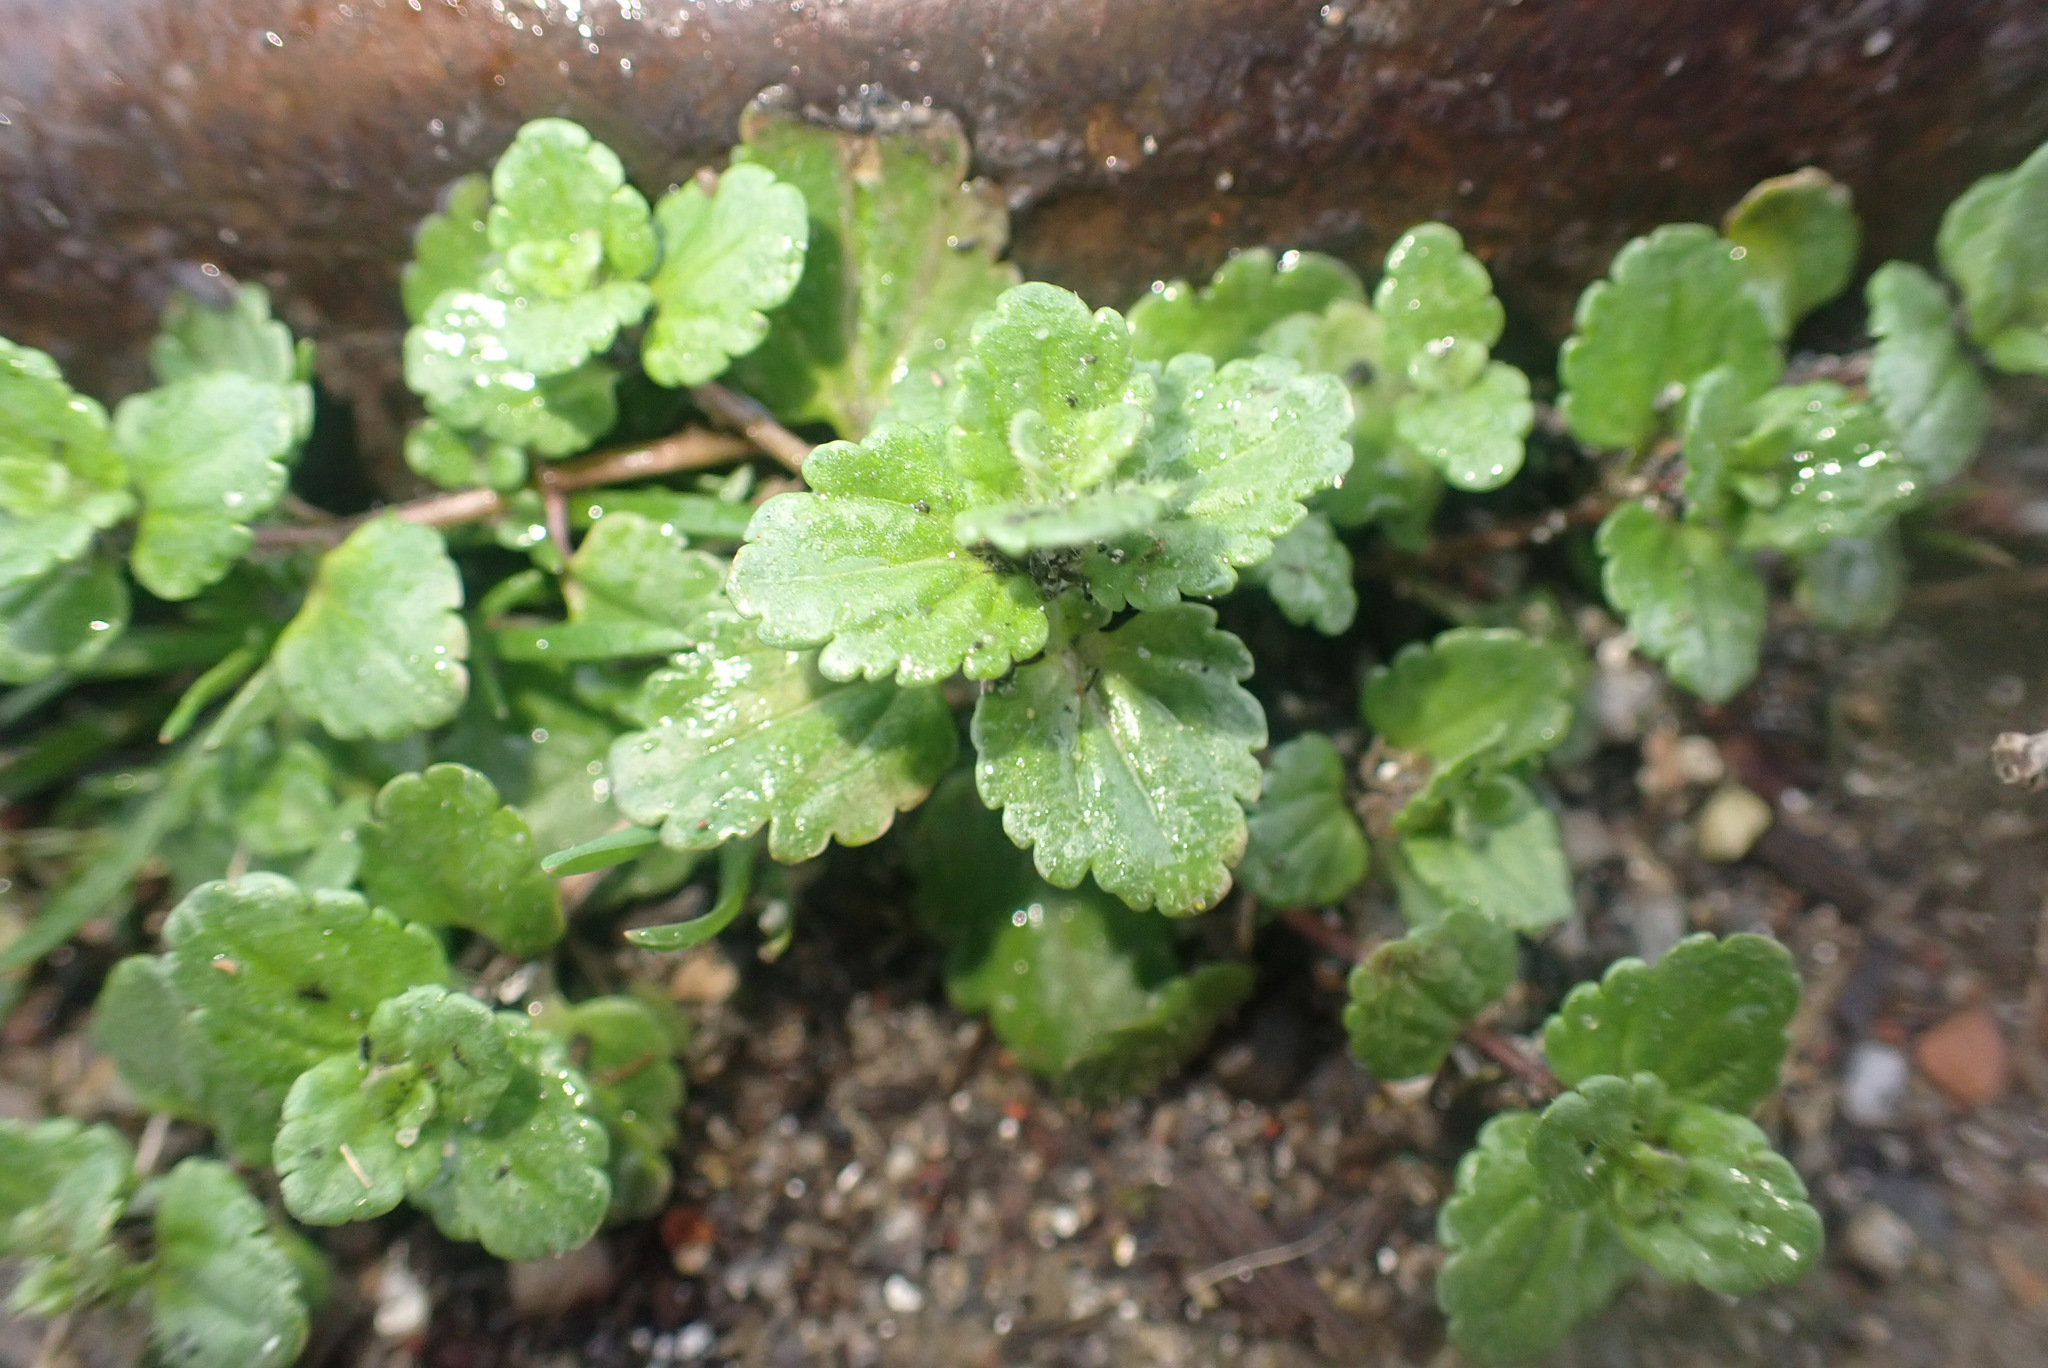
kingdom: Plantae
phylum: Tracheophyta
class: Magnoliopsida
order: Lamiales
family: Plantaginaceae
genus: Veronica
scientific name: Veronica arvensis
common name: Corn speedwell
